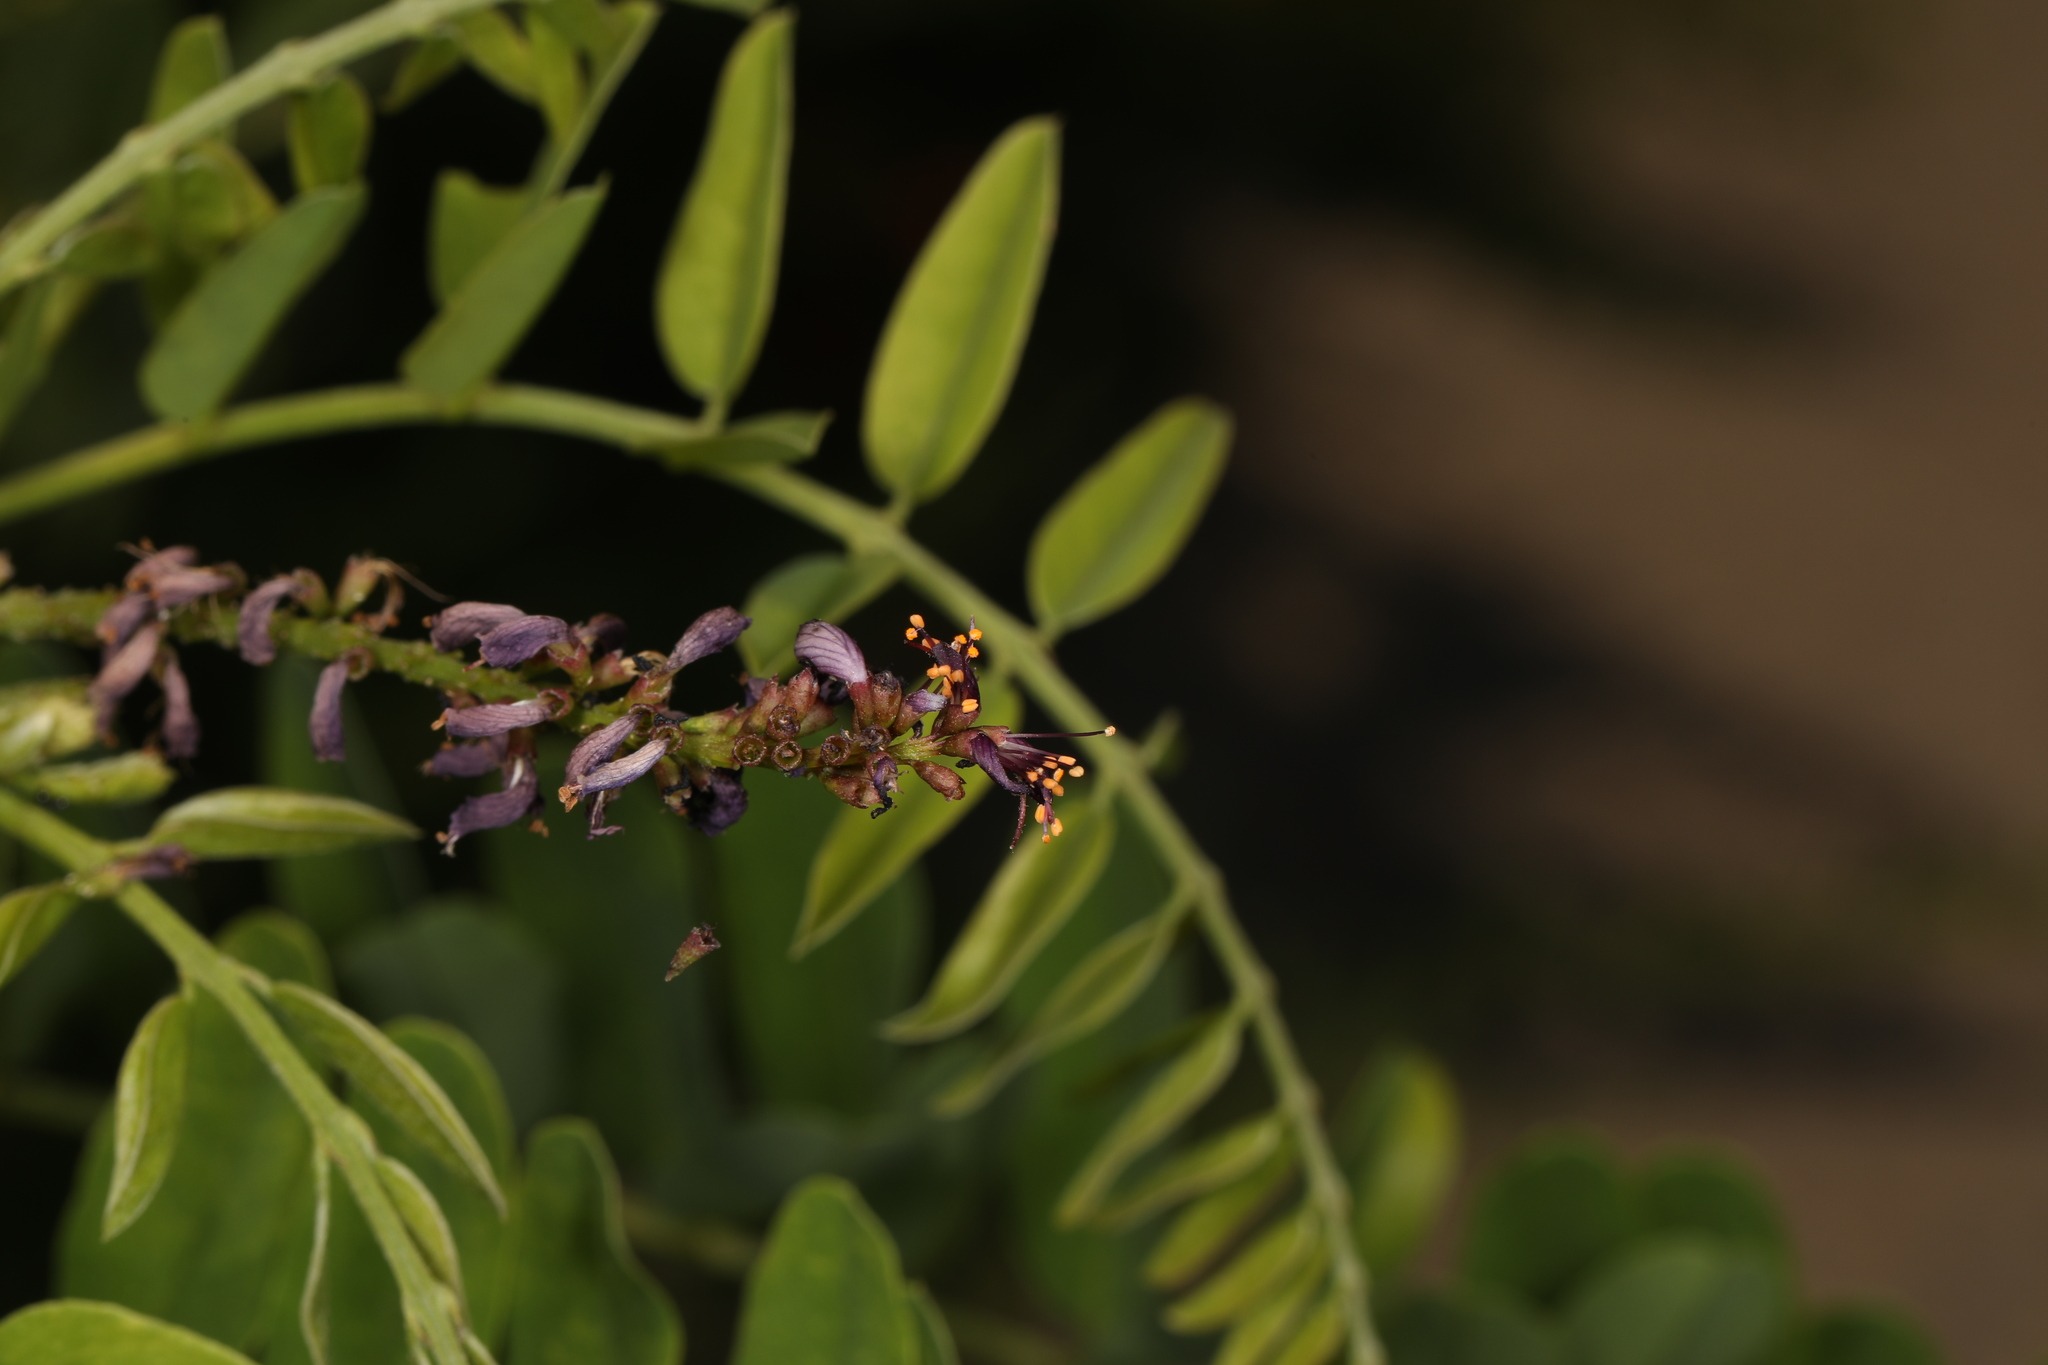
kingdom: Plantae
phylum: Tracheophyta
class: Magnoliopsida
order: Fabales
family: Fabaceae
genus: Amorpha
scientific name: Amorpha fruticosa
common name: False indigo
